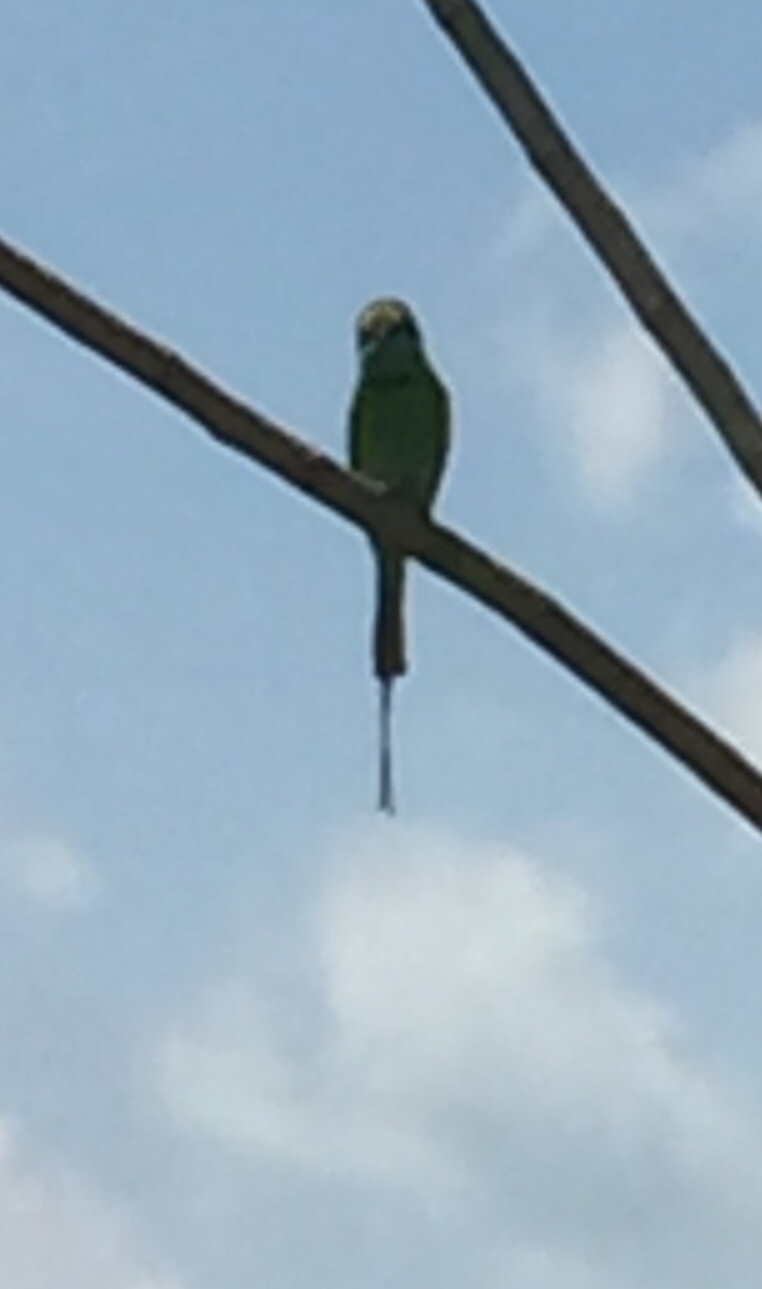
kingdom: Animalia
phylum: Chordata
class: Aves
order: Coraciiformes
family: Meropidae
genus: Merops
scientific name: Merops orientalis
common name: Green bee-eater
